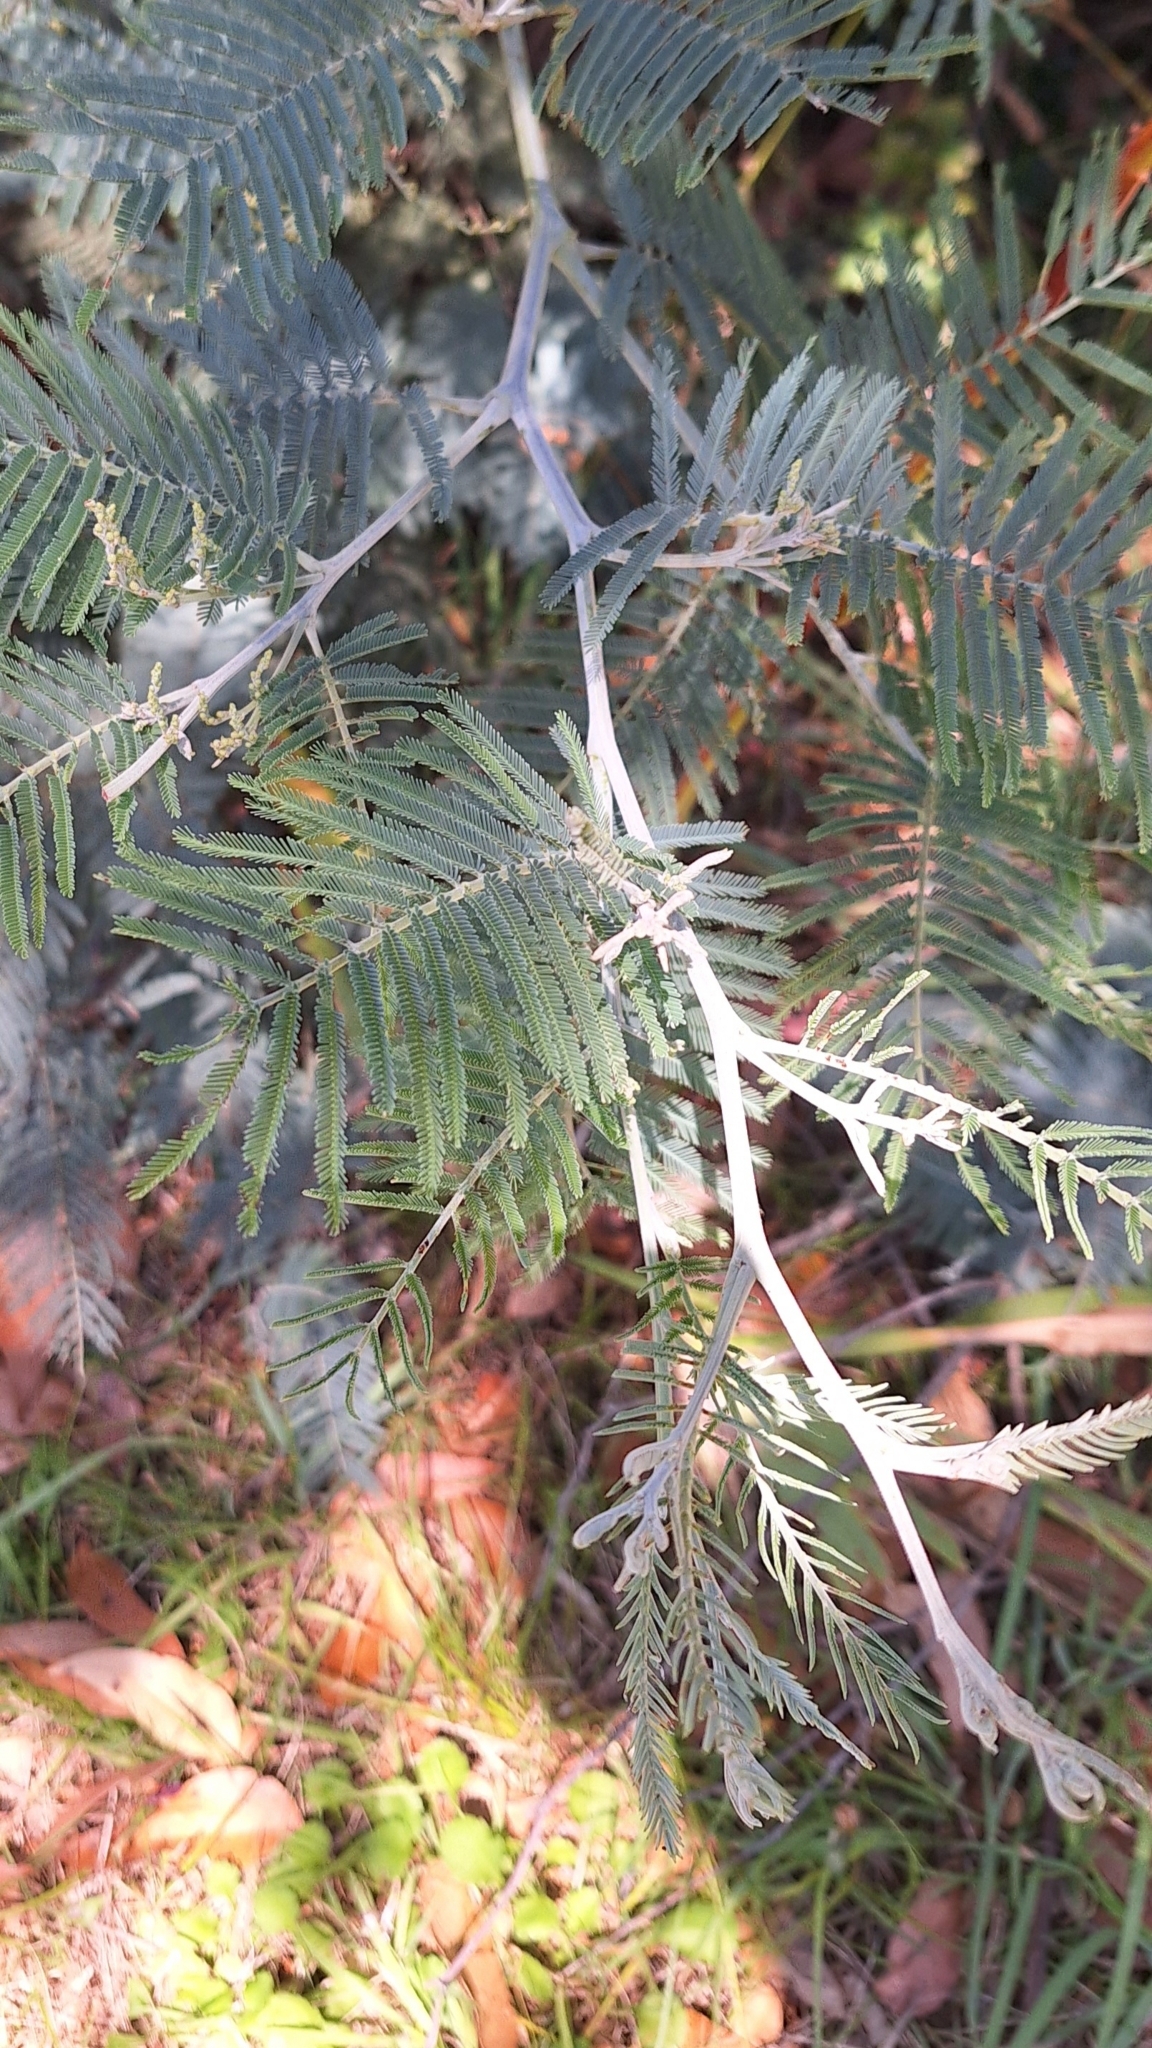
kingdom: Plantae
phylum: Tracheophyta
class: Magnoliopsida
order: Fabales
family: Fabaceae
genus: Acacia
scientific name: Acacia dealbata
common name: Silver wattle
